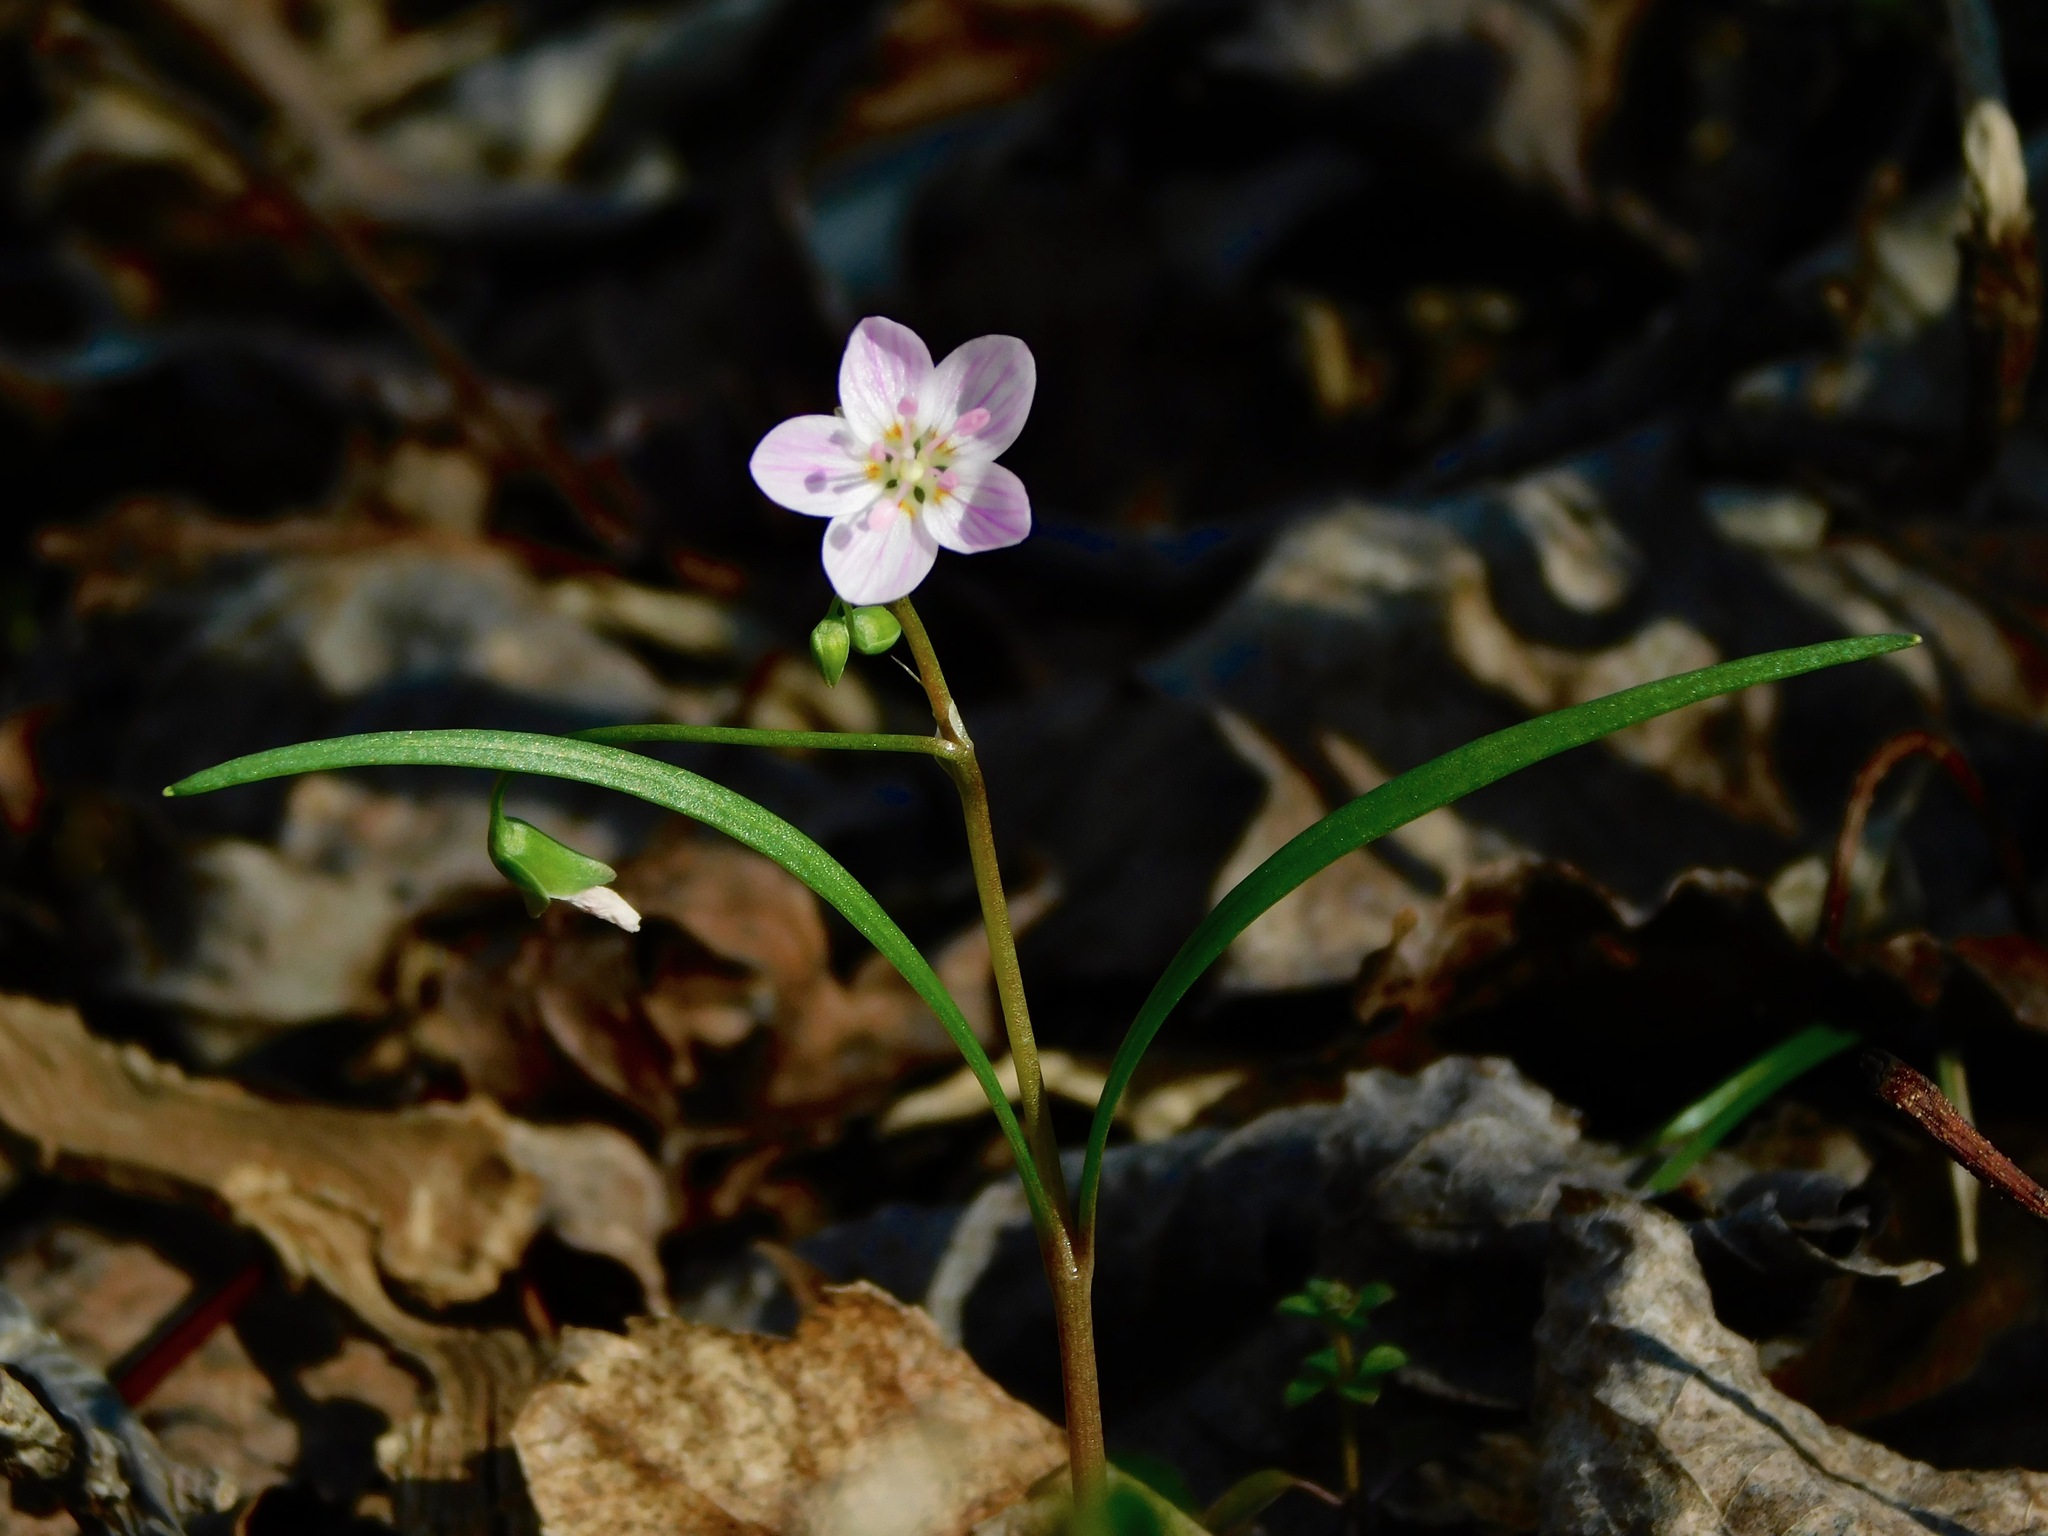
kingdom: Plantae
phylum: Tracheophyta
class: Magnoliopsida
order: Caryophyllales
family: Montiaceae
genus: Claytonia
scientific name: Claytonia virginica
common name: Virginia springbeauty
